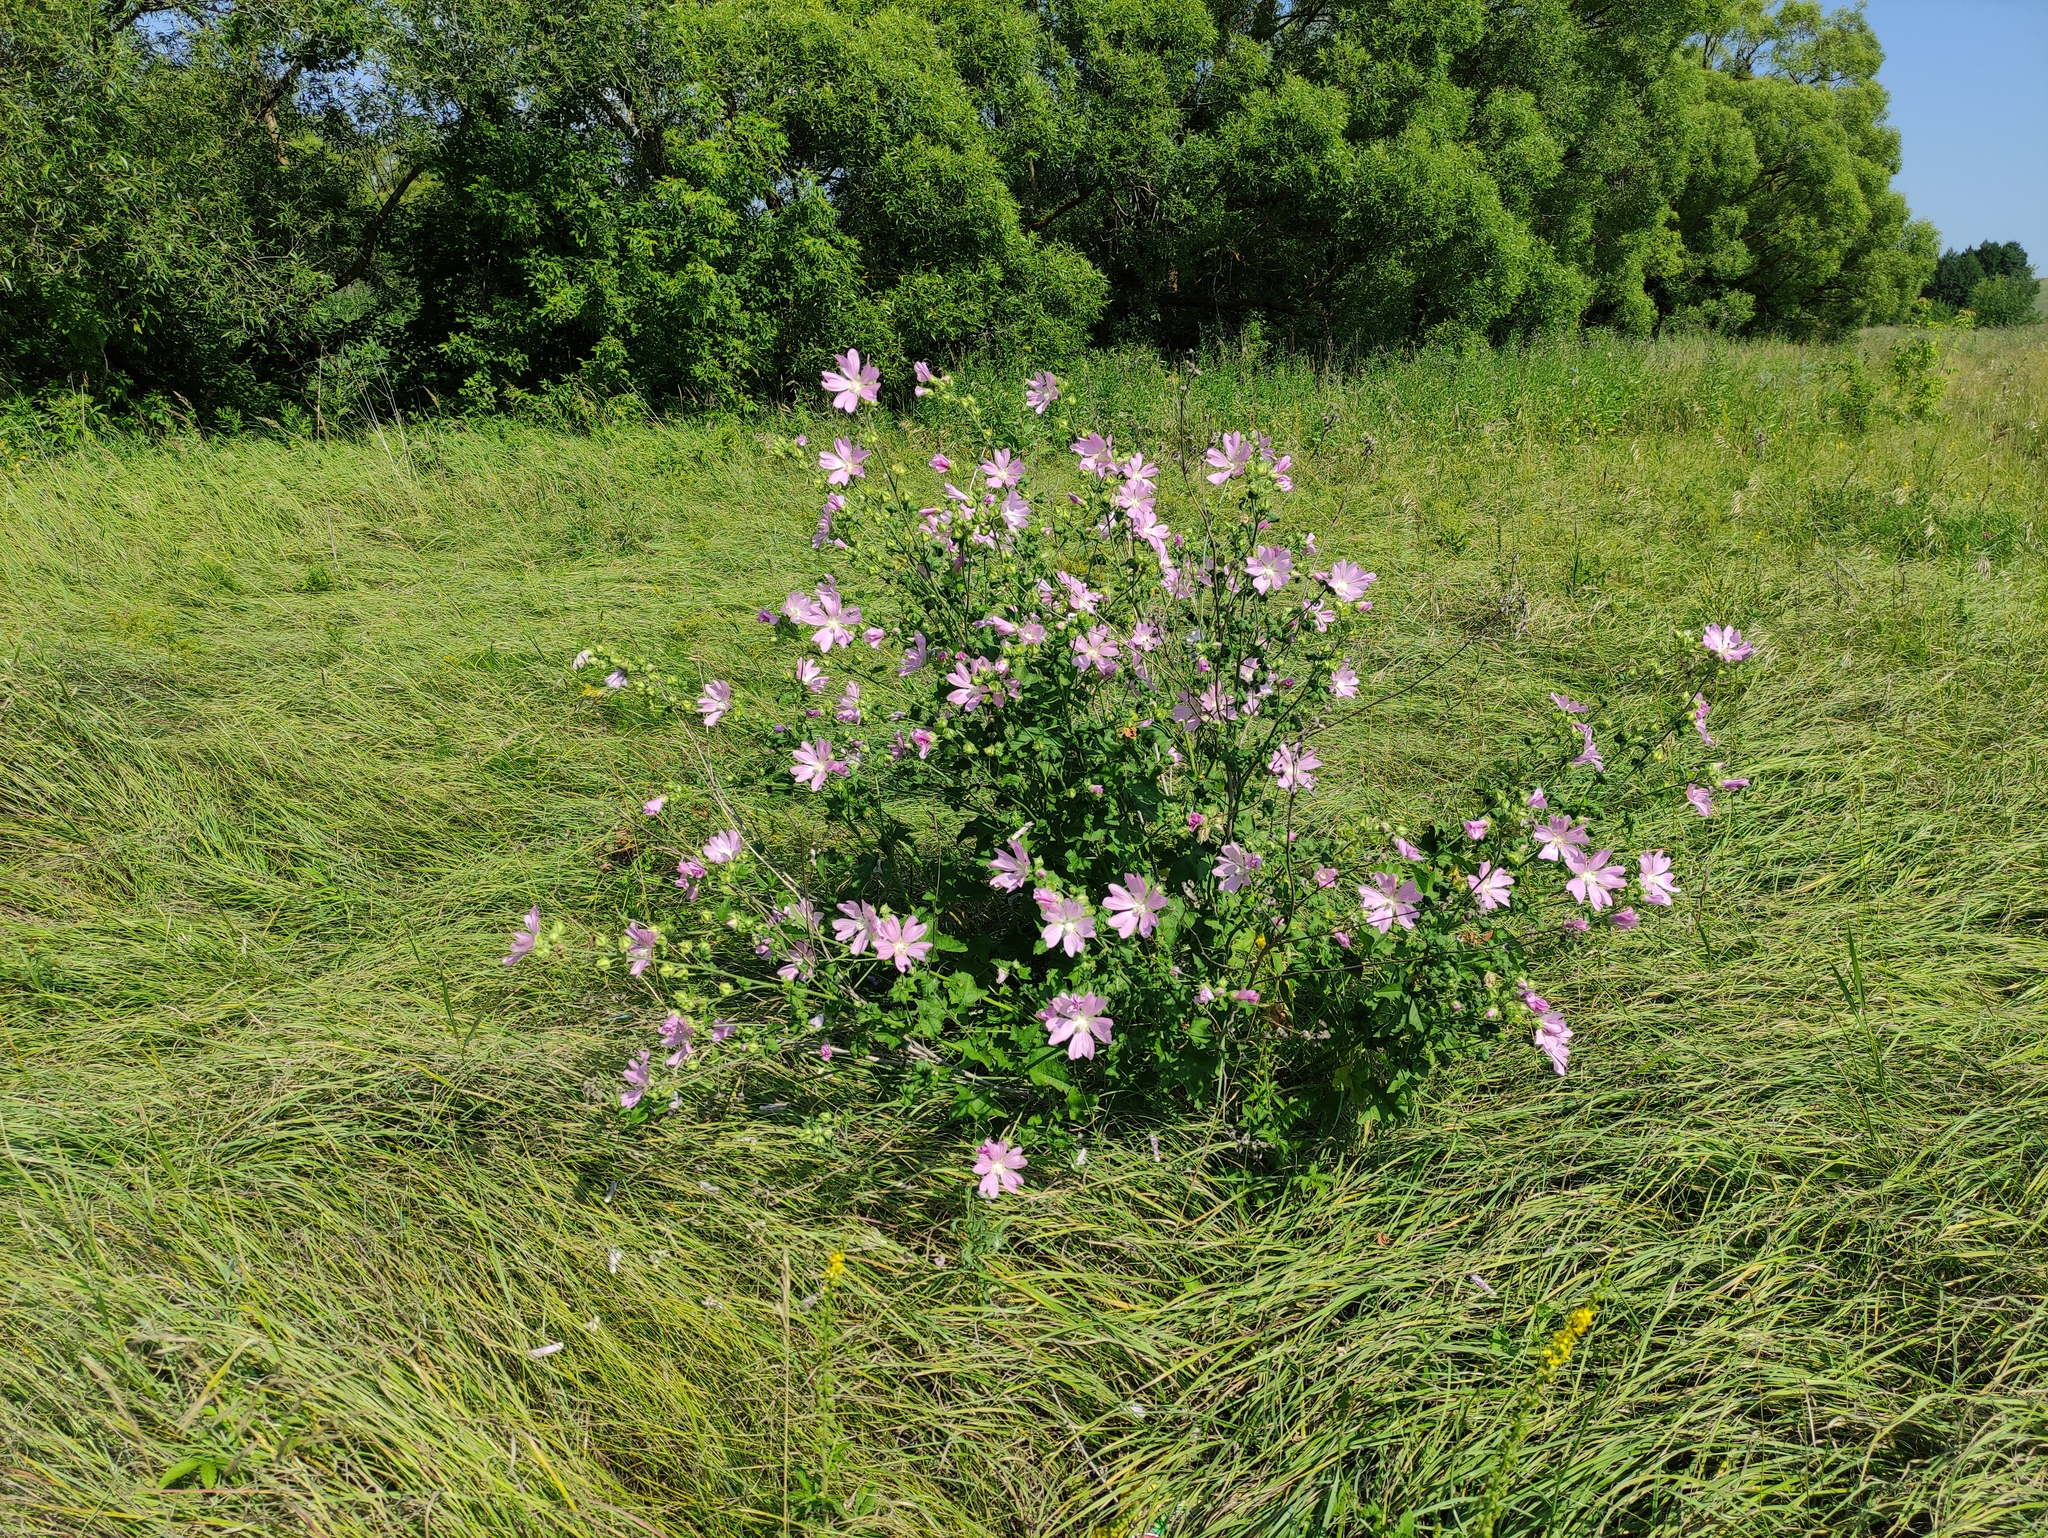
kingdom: Plantae
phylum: Tracheophyta
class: Magnoliopsida
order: Malvales
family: Malvaceae
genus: Malva
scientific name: Malva thuringiaca
